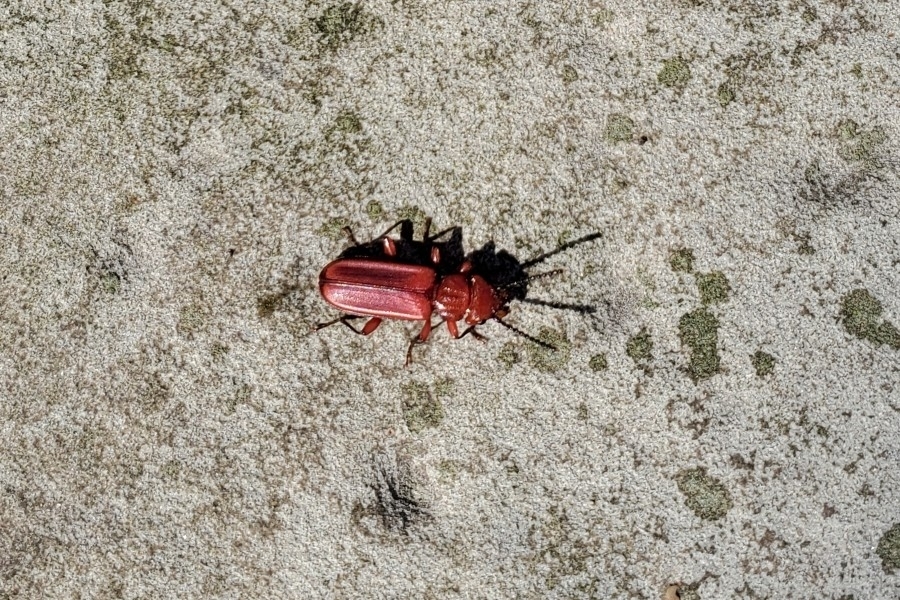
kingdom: Animalia
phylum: Arthropoda
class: Insecta
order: Coleoptera
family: Cucujidae
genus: Cucujus
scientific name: Cucujus clavipes
